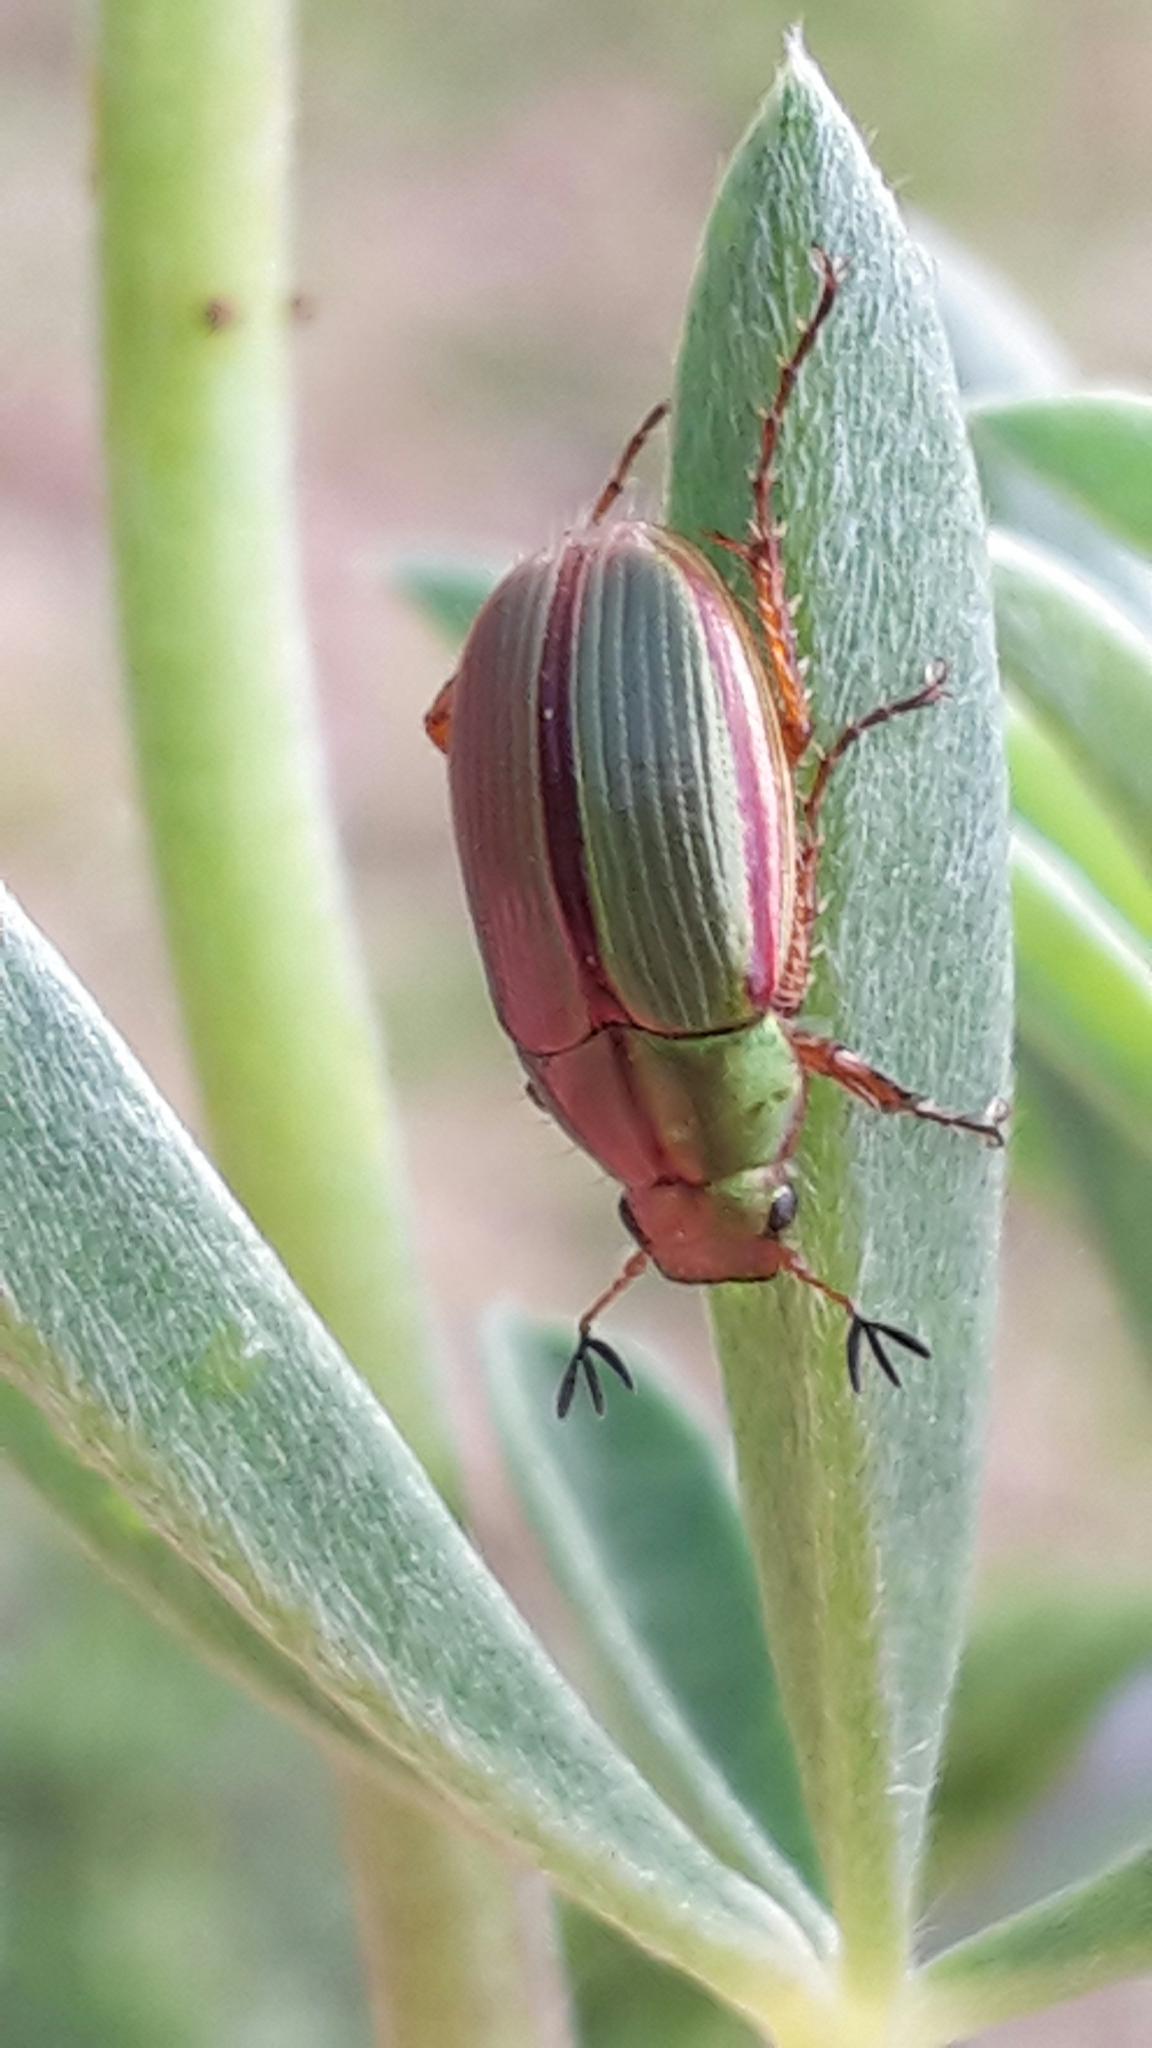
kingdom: Animalia
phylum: Arthropoda
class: Insecta
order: Coleoptera
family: Scarabaeidae
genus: Pyronota
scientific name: Pyronota festiva
